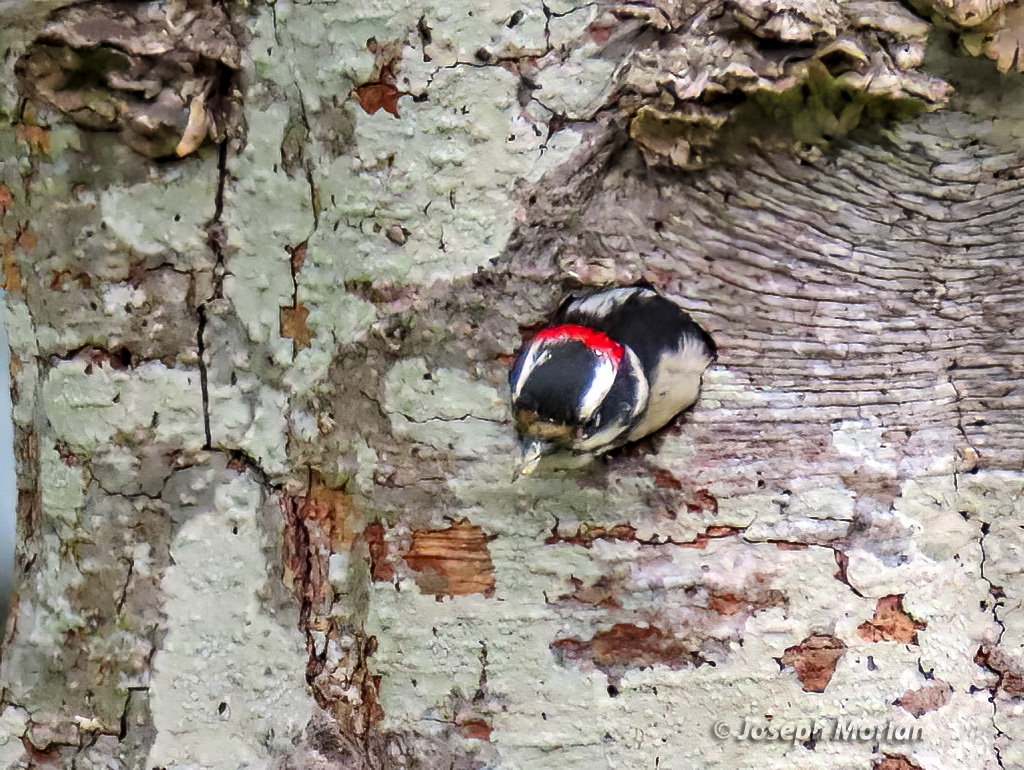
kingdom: Animalia
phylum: Chordata
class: Aves
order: Piciformes
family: Picidae
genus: Dryobates
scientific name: Dryobates pubescens
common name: Downy woodpecker
